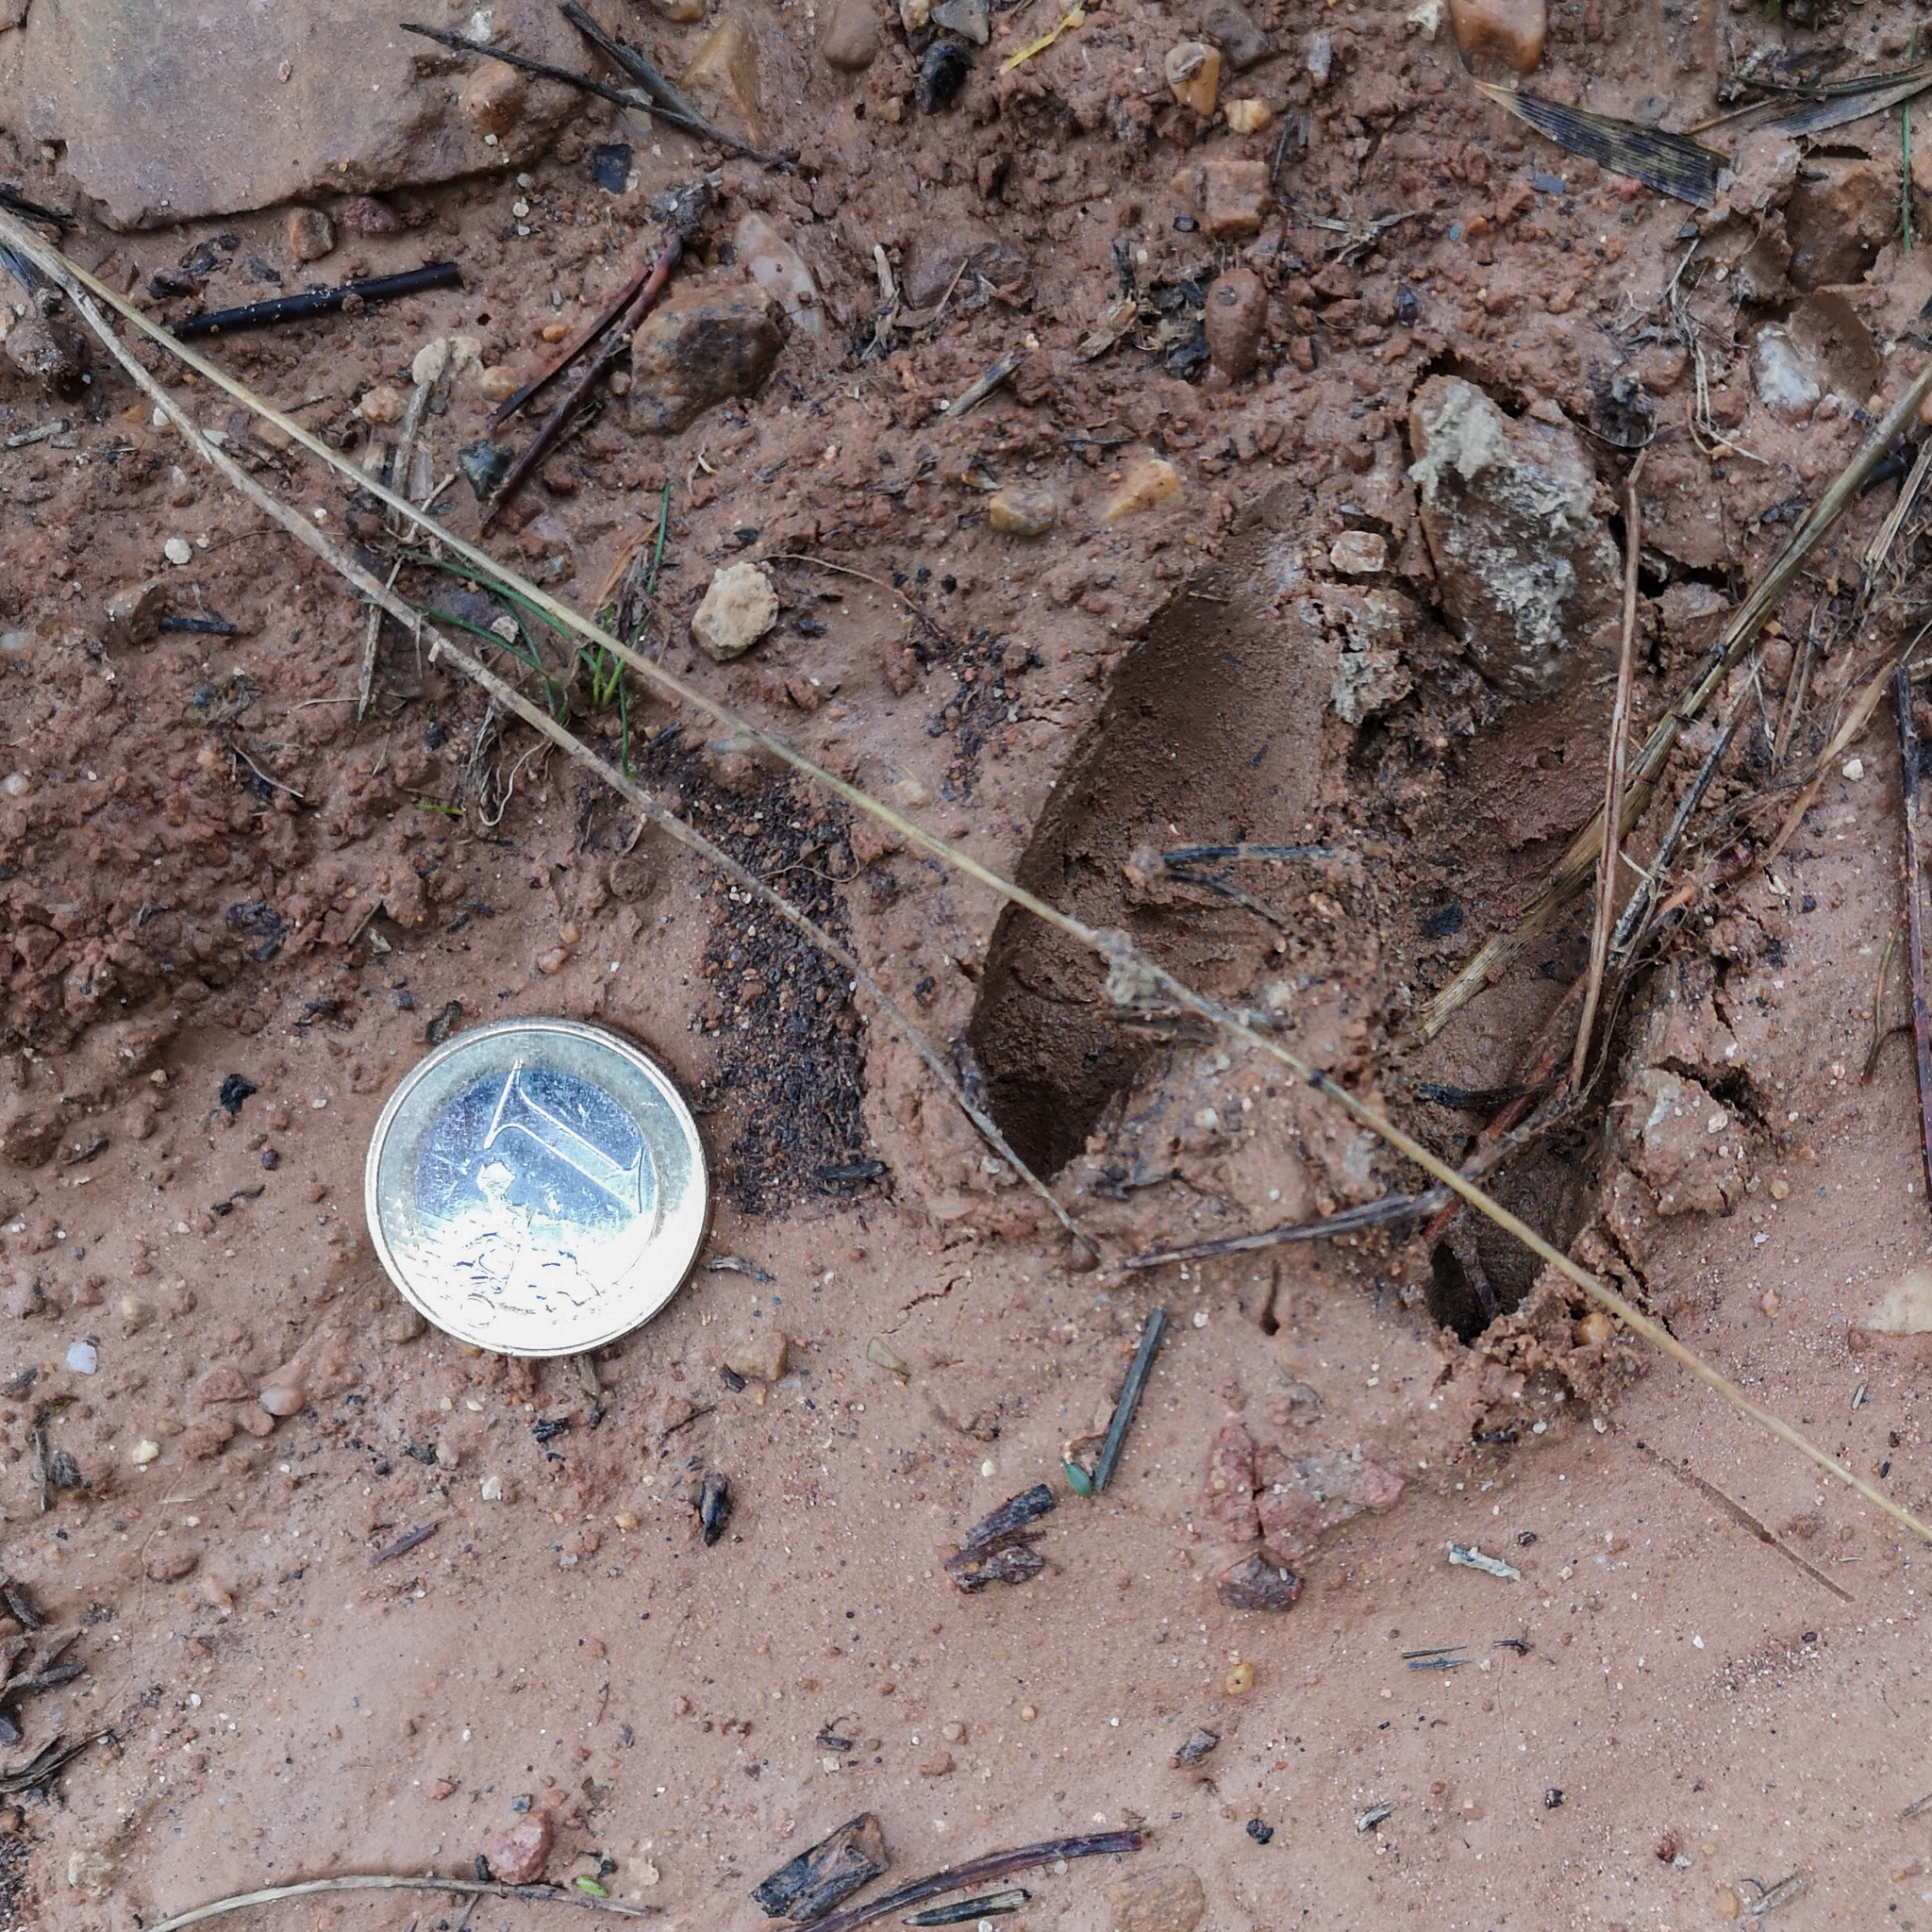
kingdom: Animalia
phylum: Chordata
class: Mammalia
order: Artiodactyla
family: Cervidae
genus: Capreolus
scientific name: Capreolus capreolus
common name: Western roe deer
